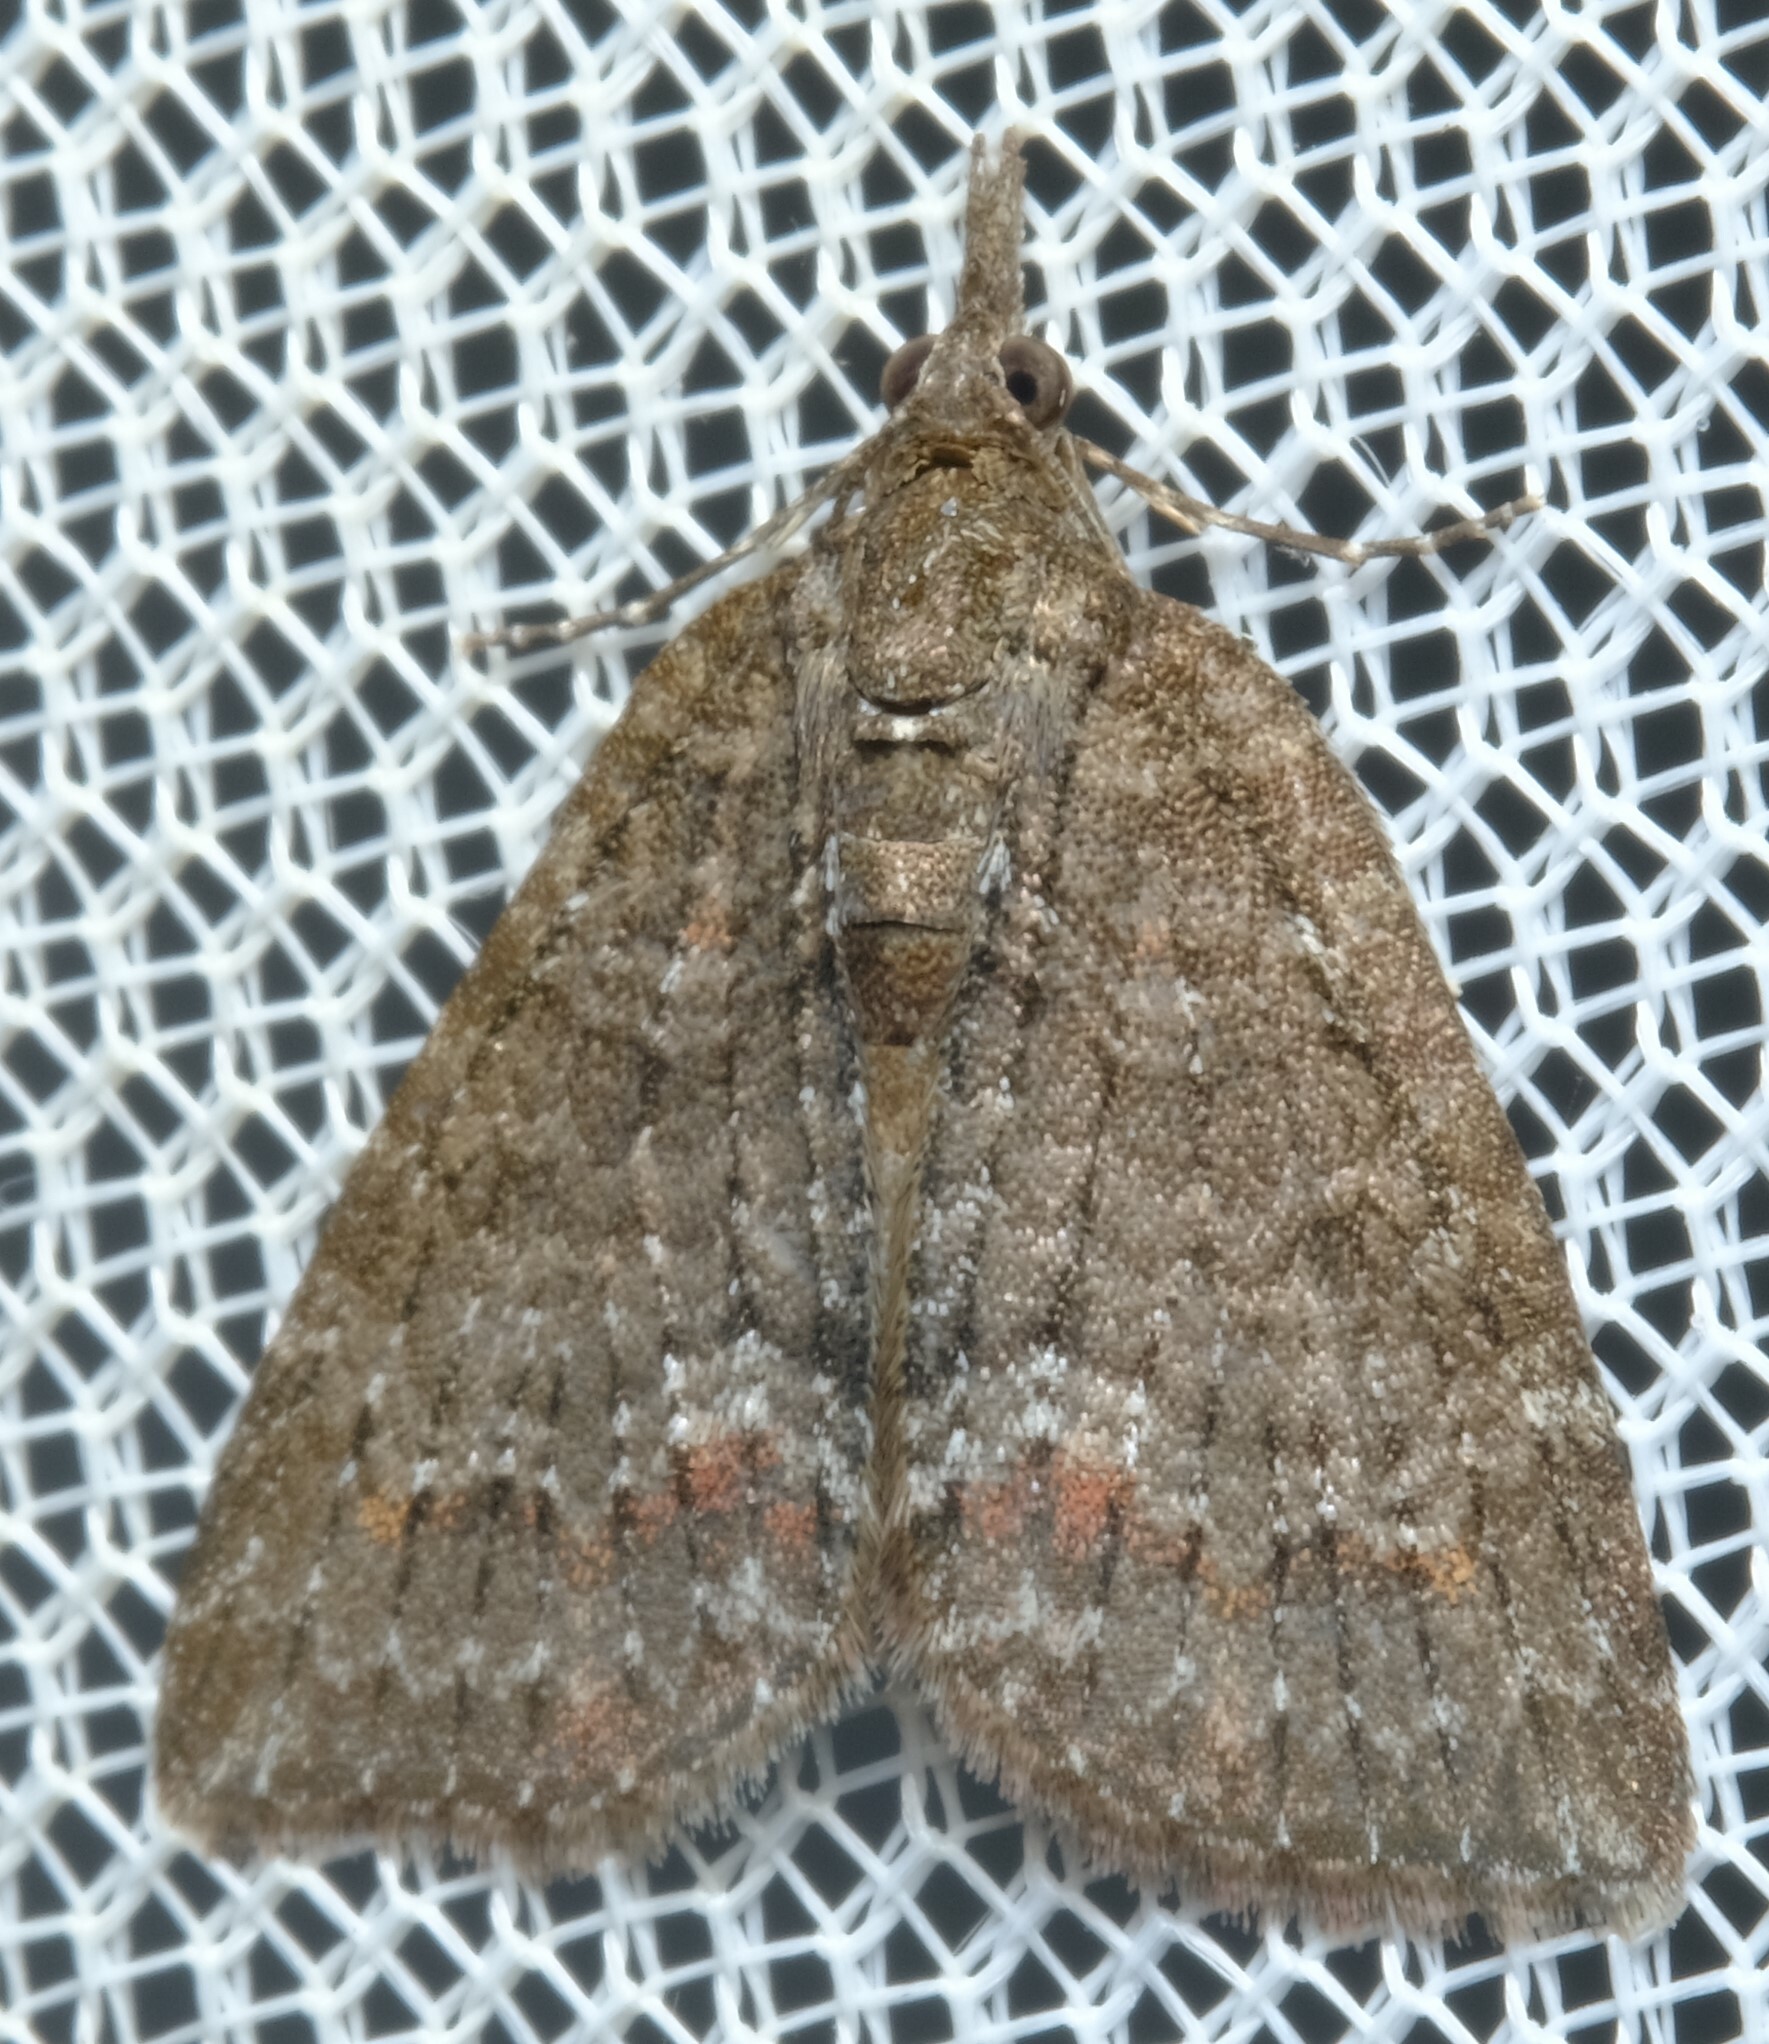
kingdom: Animalia
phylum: Arthropoda
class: Insecta
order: Lepidoptera
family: Geometridae
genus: Microdes
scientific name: Microdes squamulata
